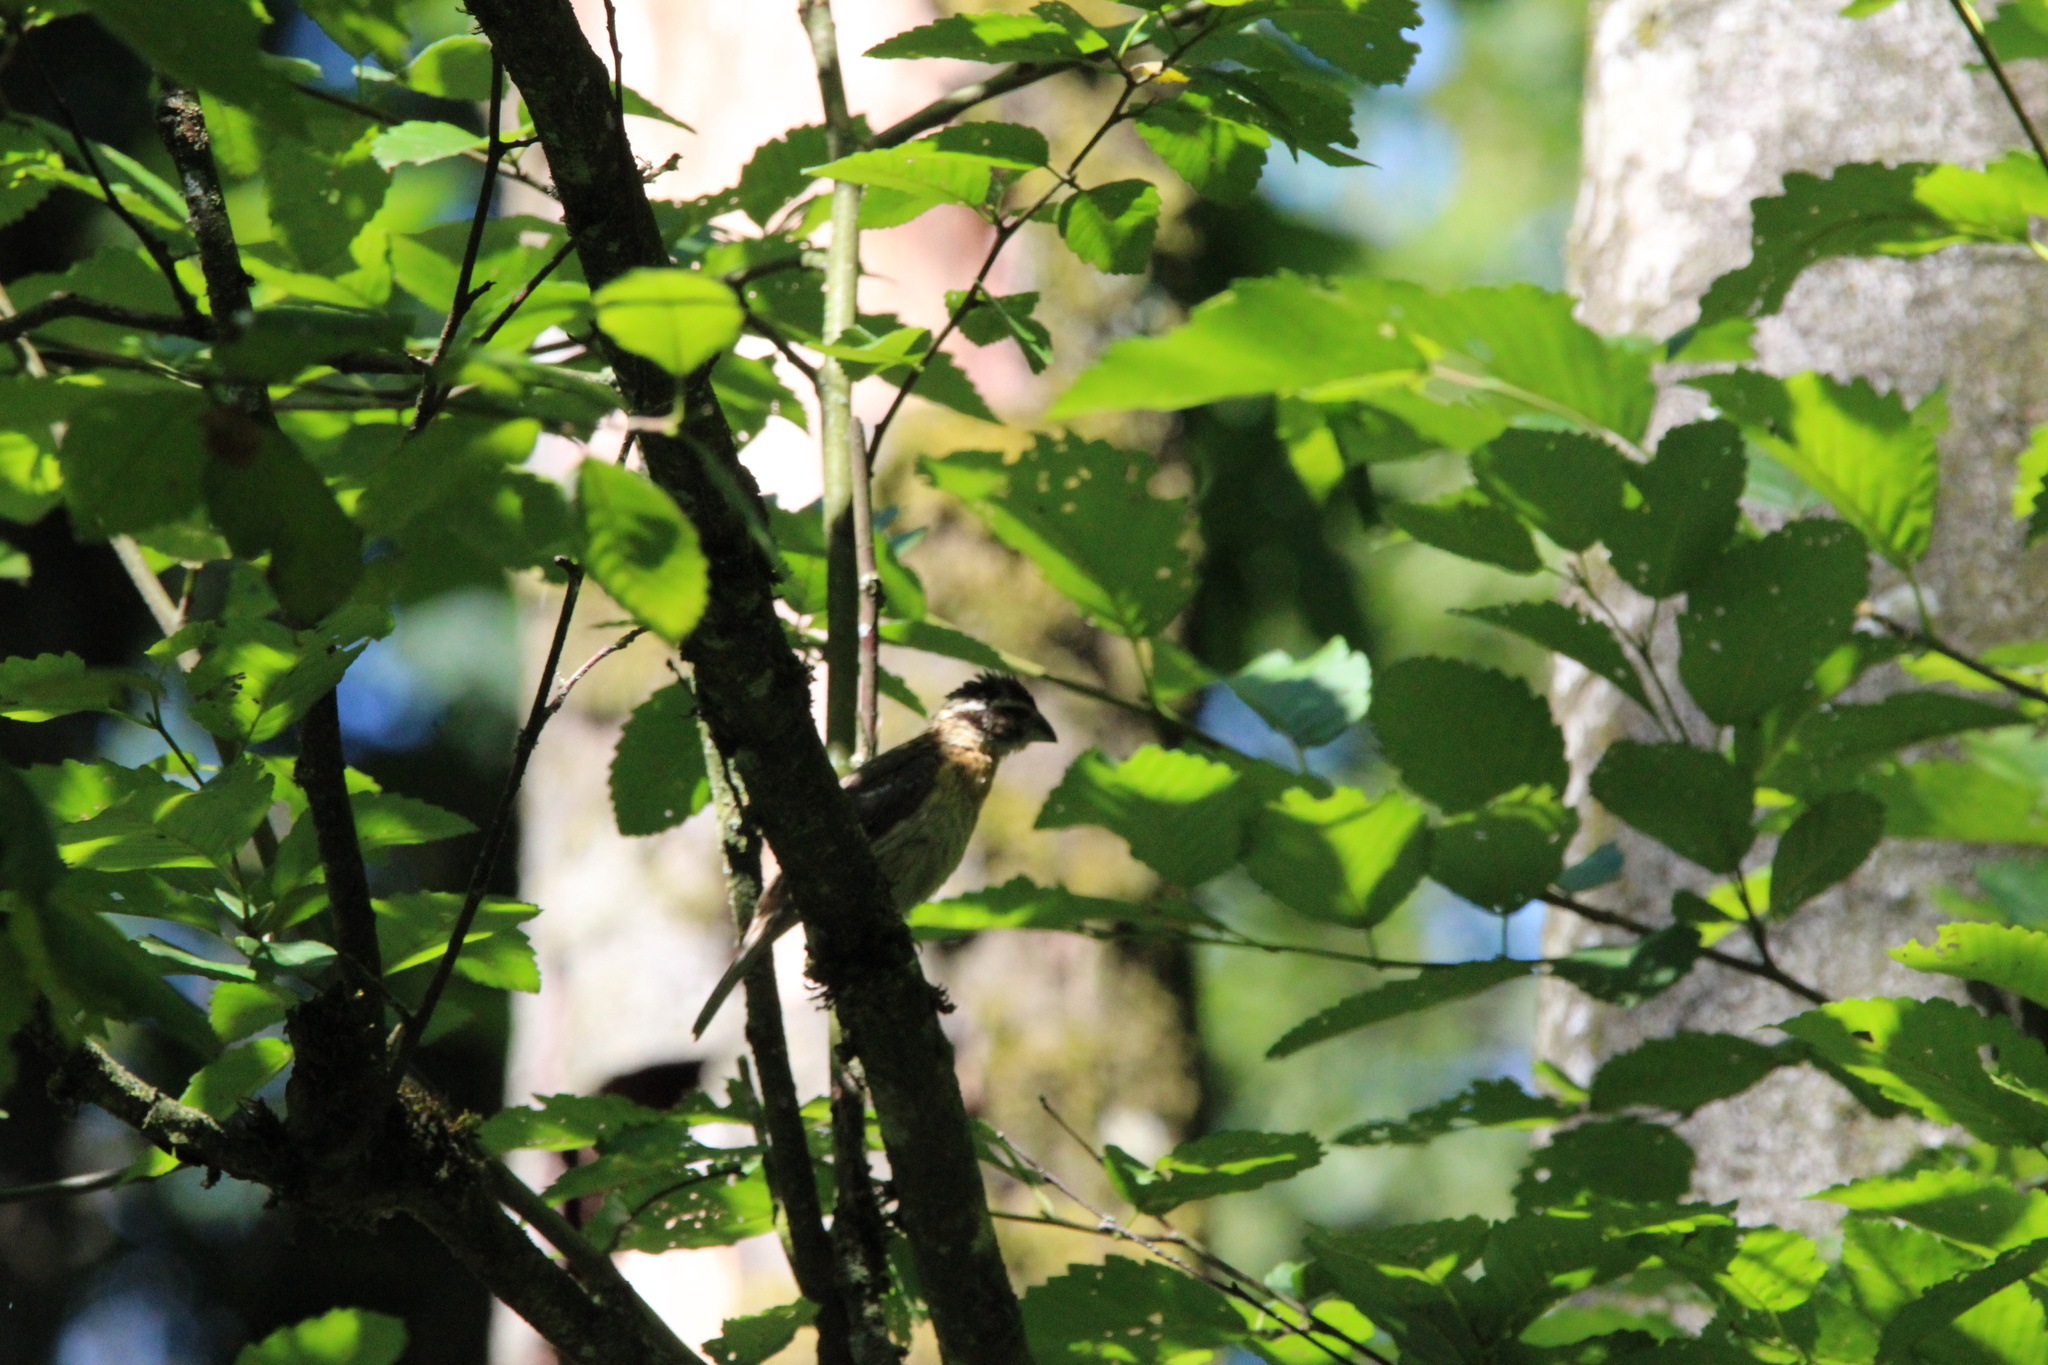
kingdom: Animalia
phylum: Chordata
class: Aves
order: Passeriformes
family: Cardinalidae
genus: Pheucticus
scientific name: Pheucticus melanocephalus
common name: Black-headed grosbeak
